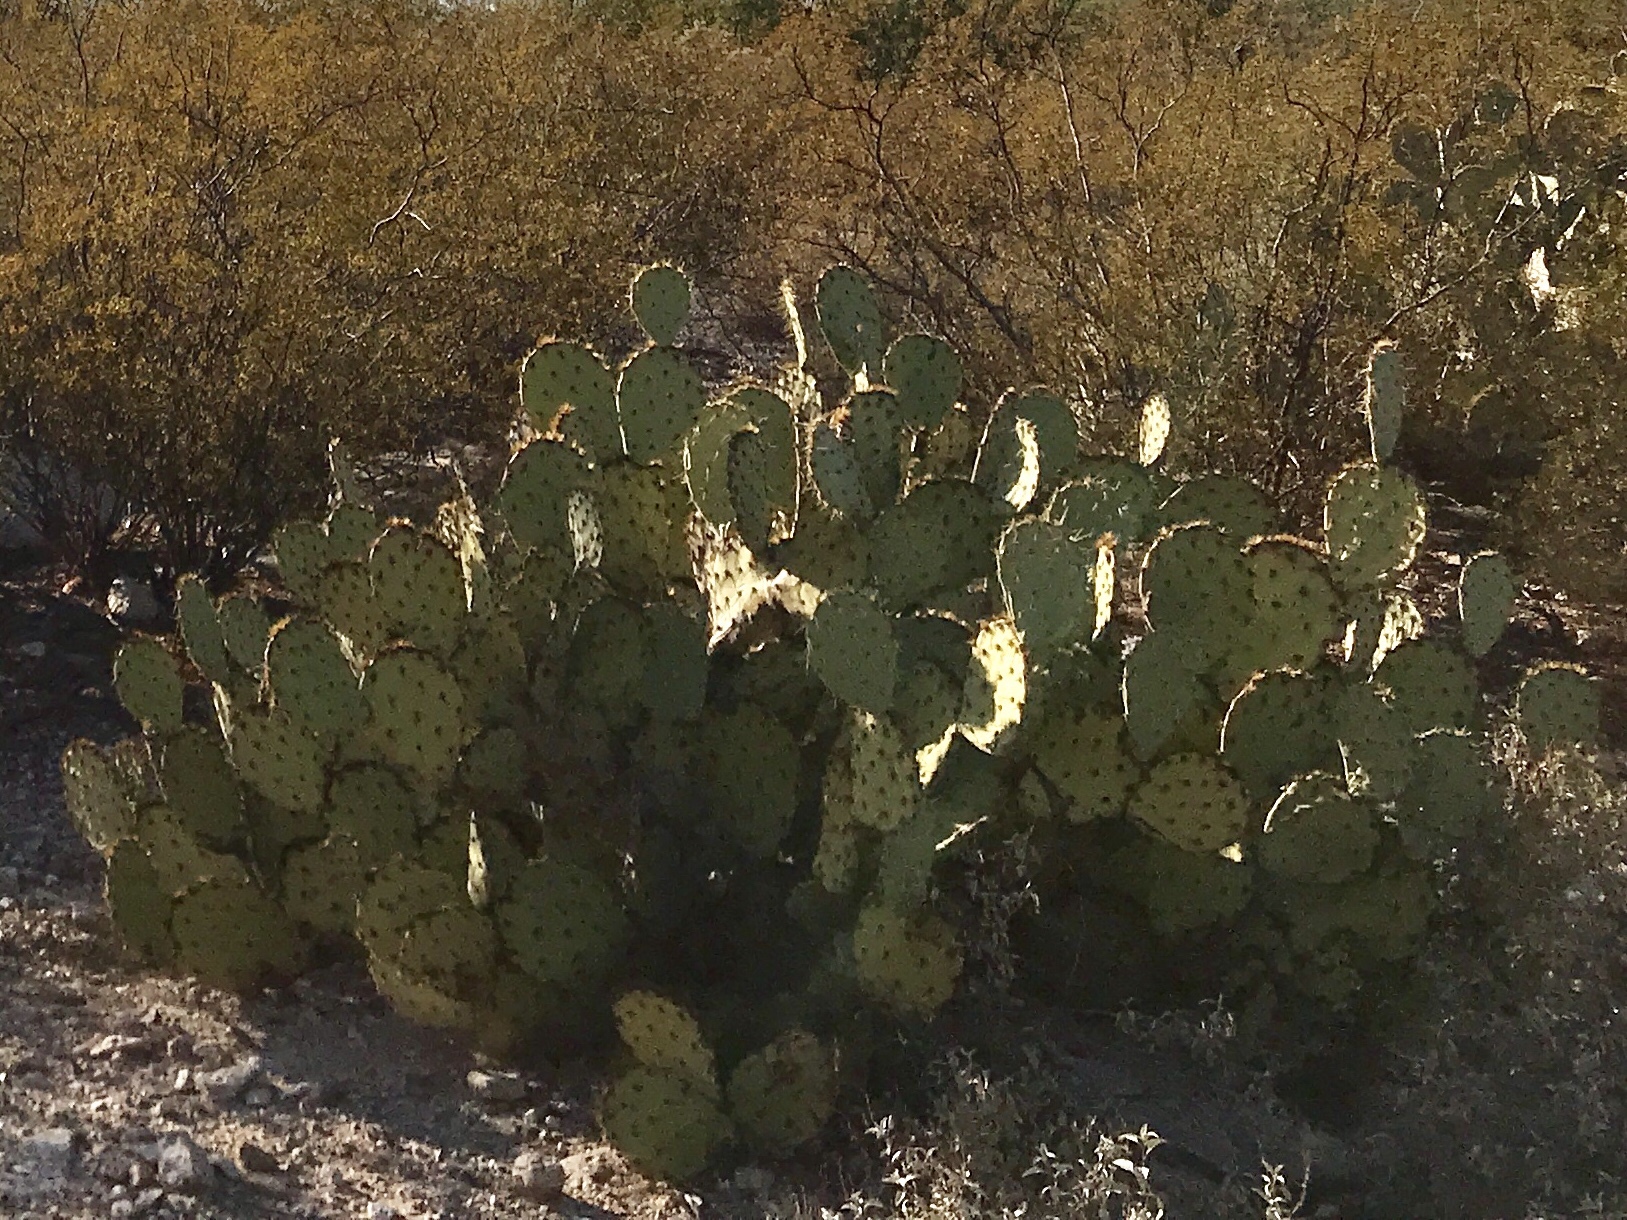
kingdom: Plantae
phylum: Tracheophyta
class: Magnoliopsida
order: Caryophyllales
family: Cactaceae
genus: Opuntia
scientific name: Opuntia engelmannii
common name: Cactus-apple
